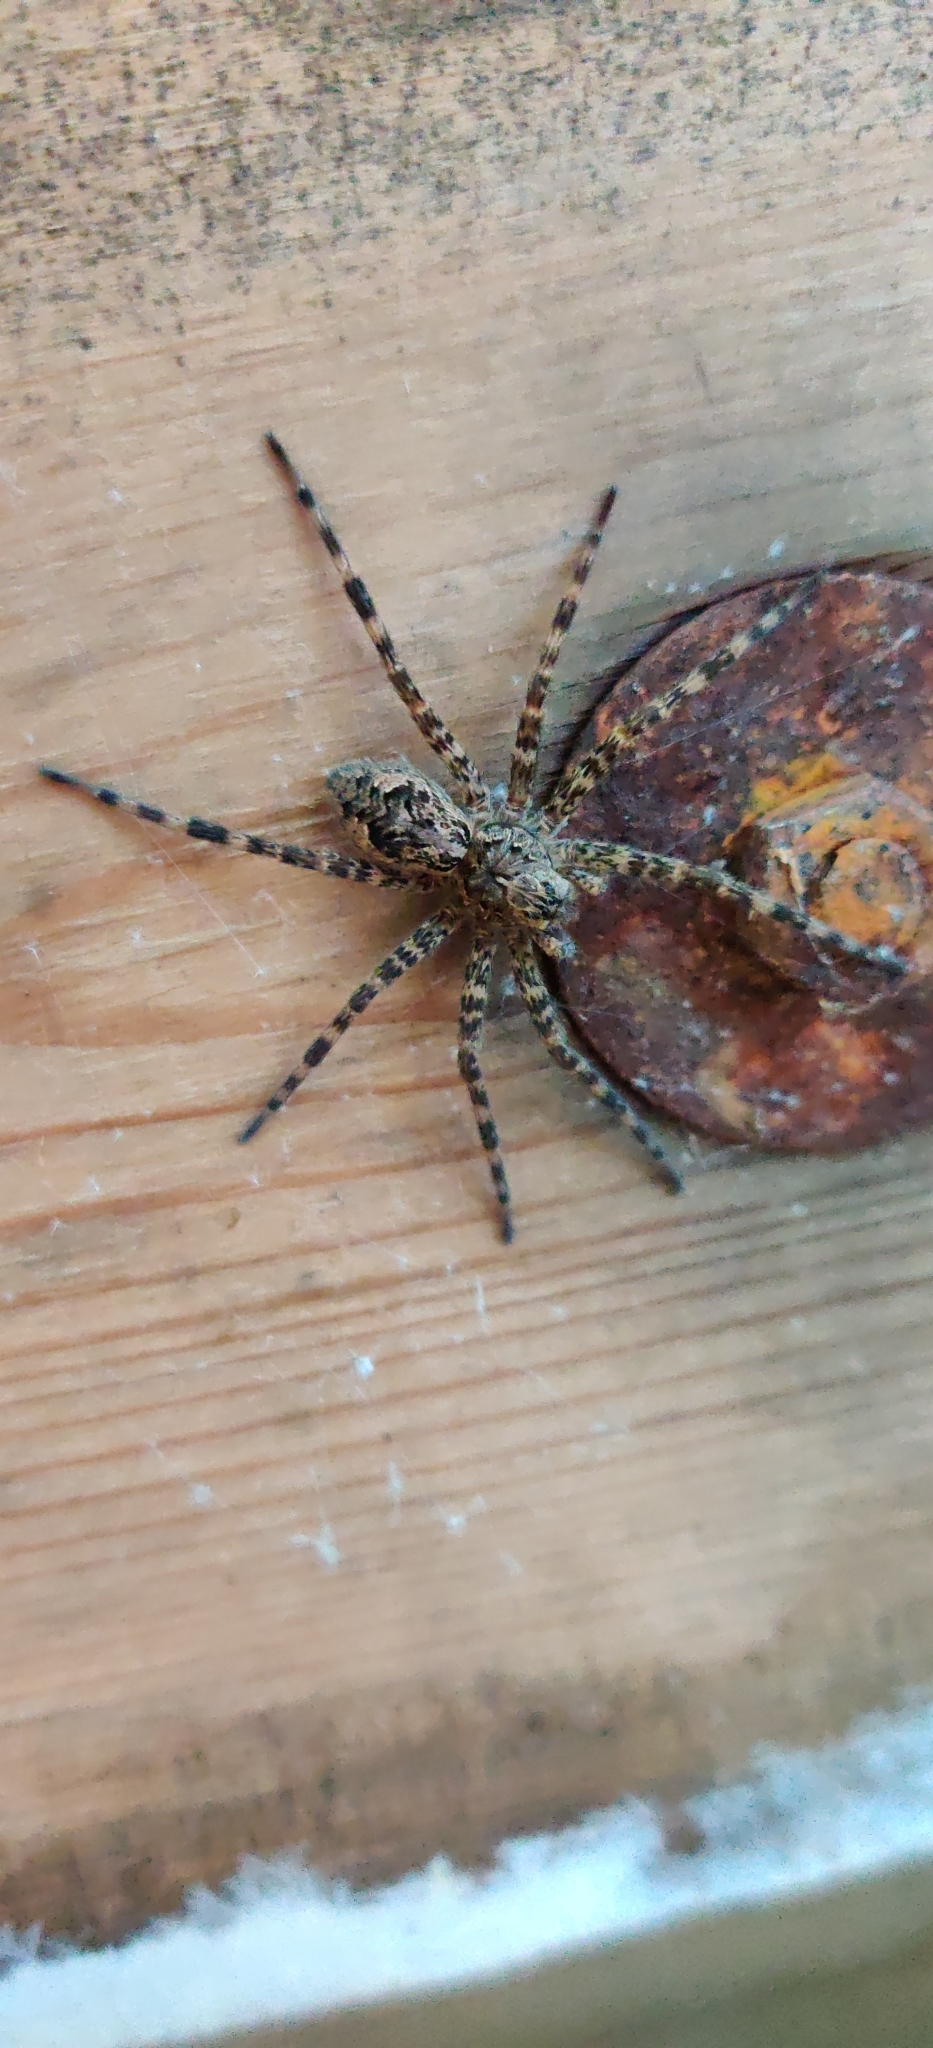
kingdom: Animalia
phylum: Arthropoda
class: Arachnida
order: Araneae
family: Pisauridae
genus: Dolomedes
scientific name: Dolomedes tenebrosus
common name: Dark fishing spider
